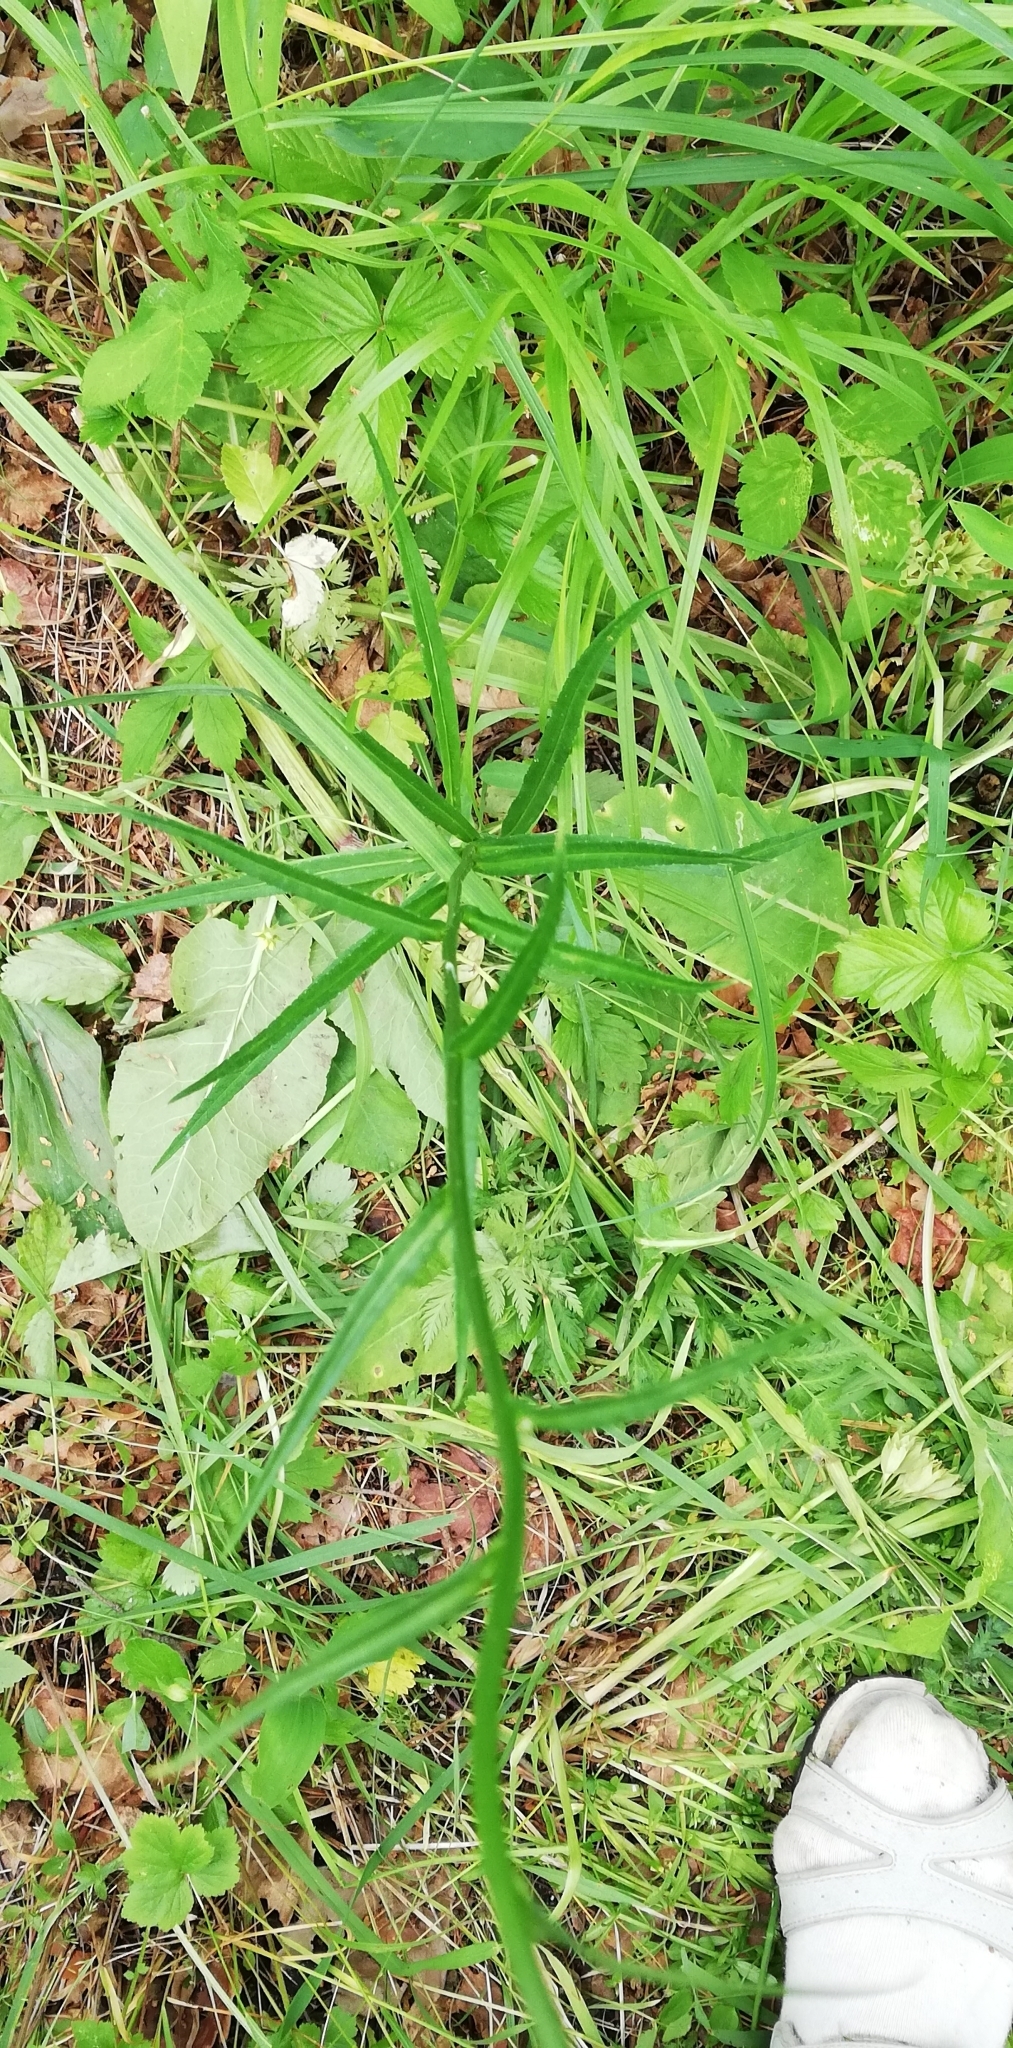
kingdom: Plantae
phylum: Tracheophyta
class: Magnoliopsida
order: Asterales
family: Campanulaceae
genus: Campanula
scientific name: Campanula persicifolia
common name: Peach-leaved bellflower
